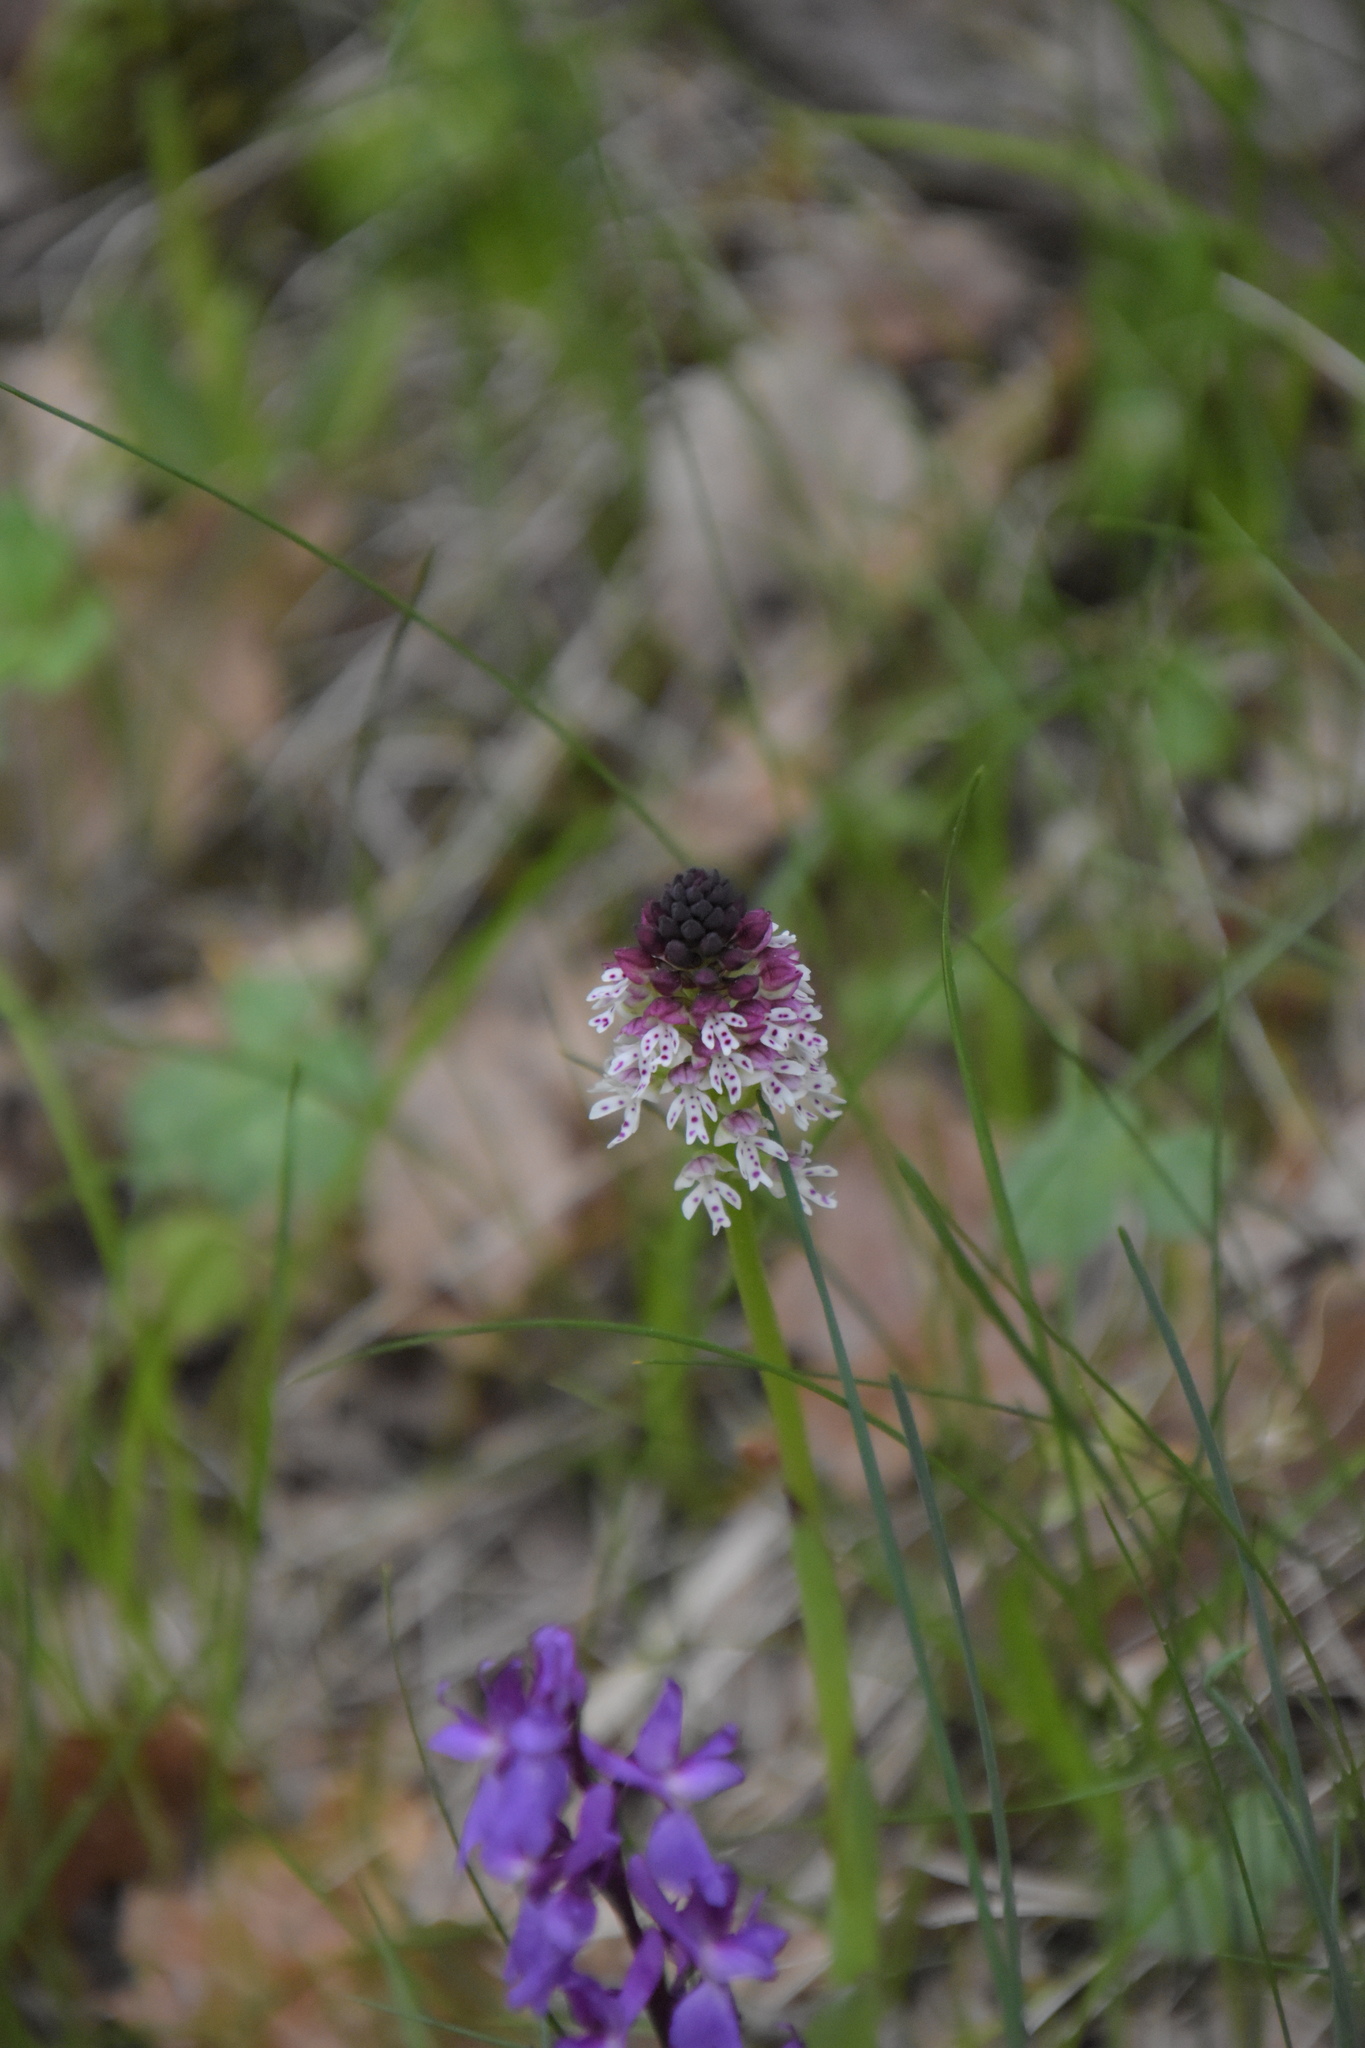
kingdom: Plantae
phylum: Tracheophyta
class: Liliopsida
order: Asparagales
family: Orchidaceae
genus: Neotinea
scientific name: Neotinea ustulata
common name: Burnt orchid
